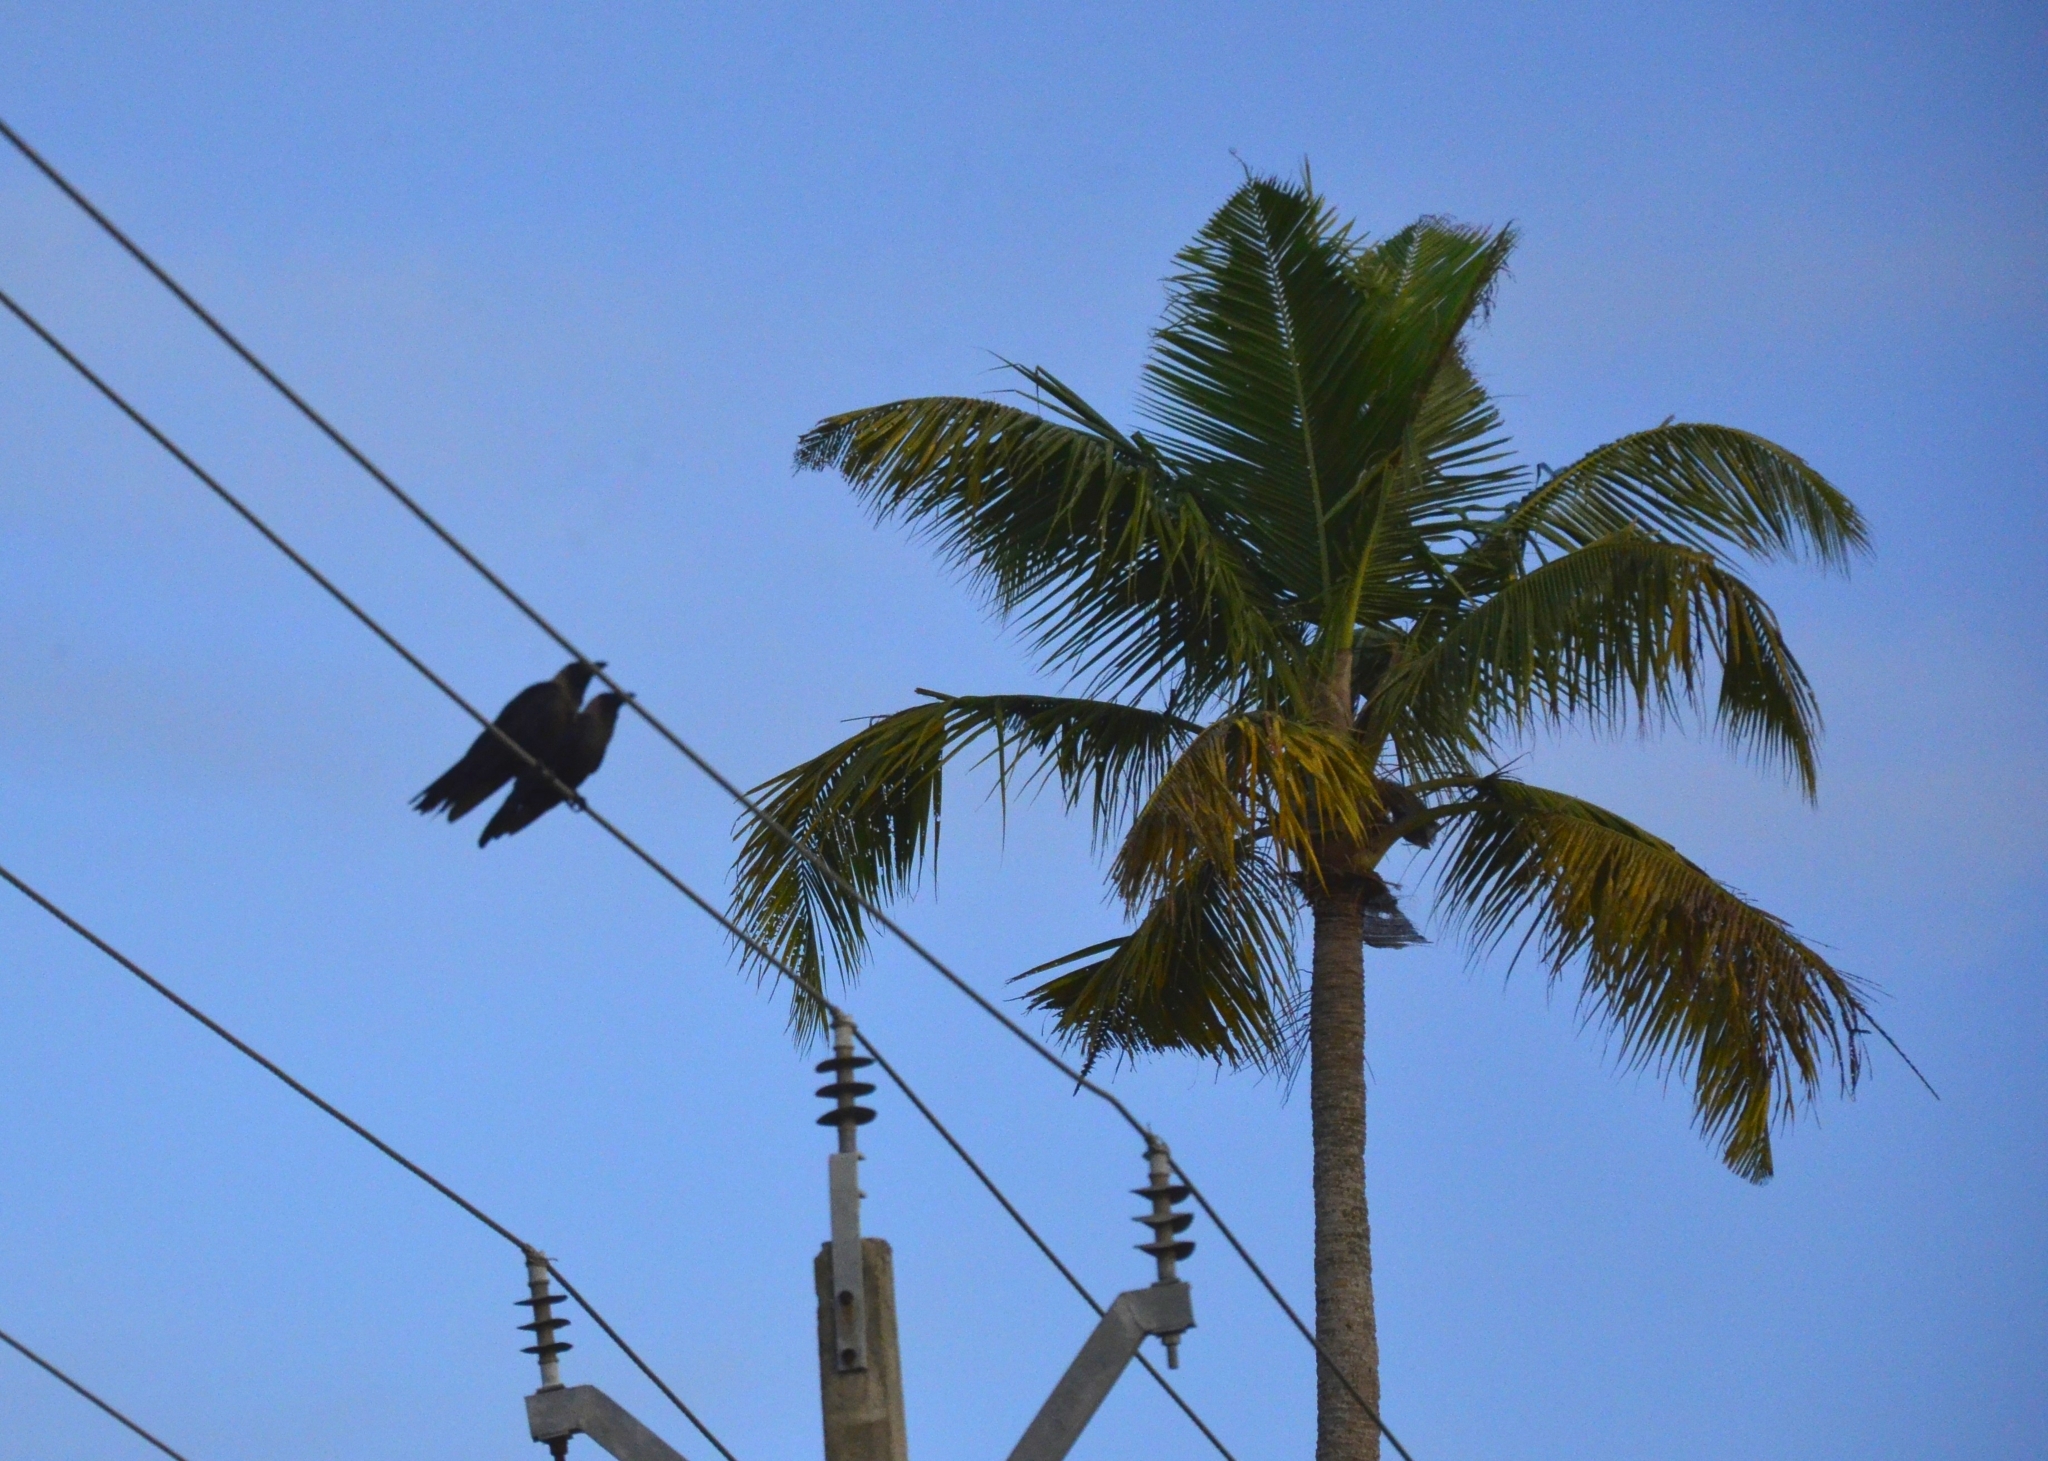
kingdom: Animalia
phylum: Chordata
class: Aves
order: Passeriformes
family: Corvidae
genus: Corvus
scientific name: Corvus splendens
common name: House crow
